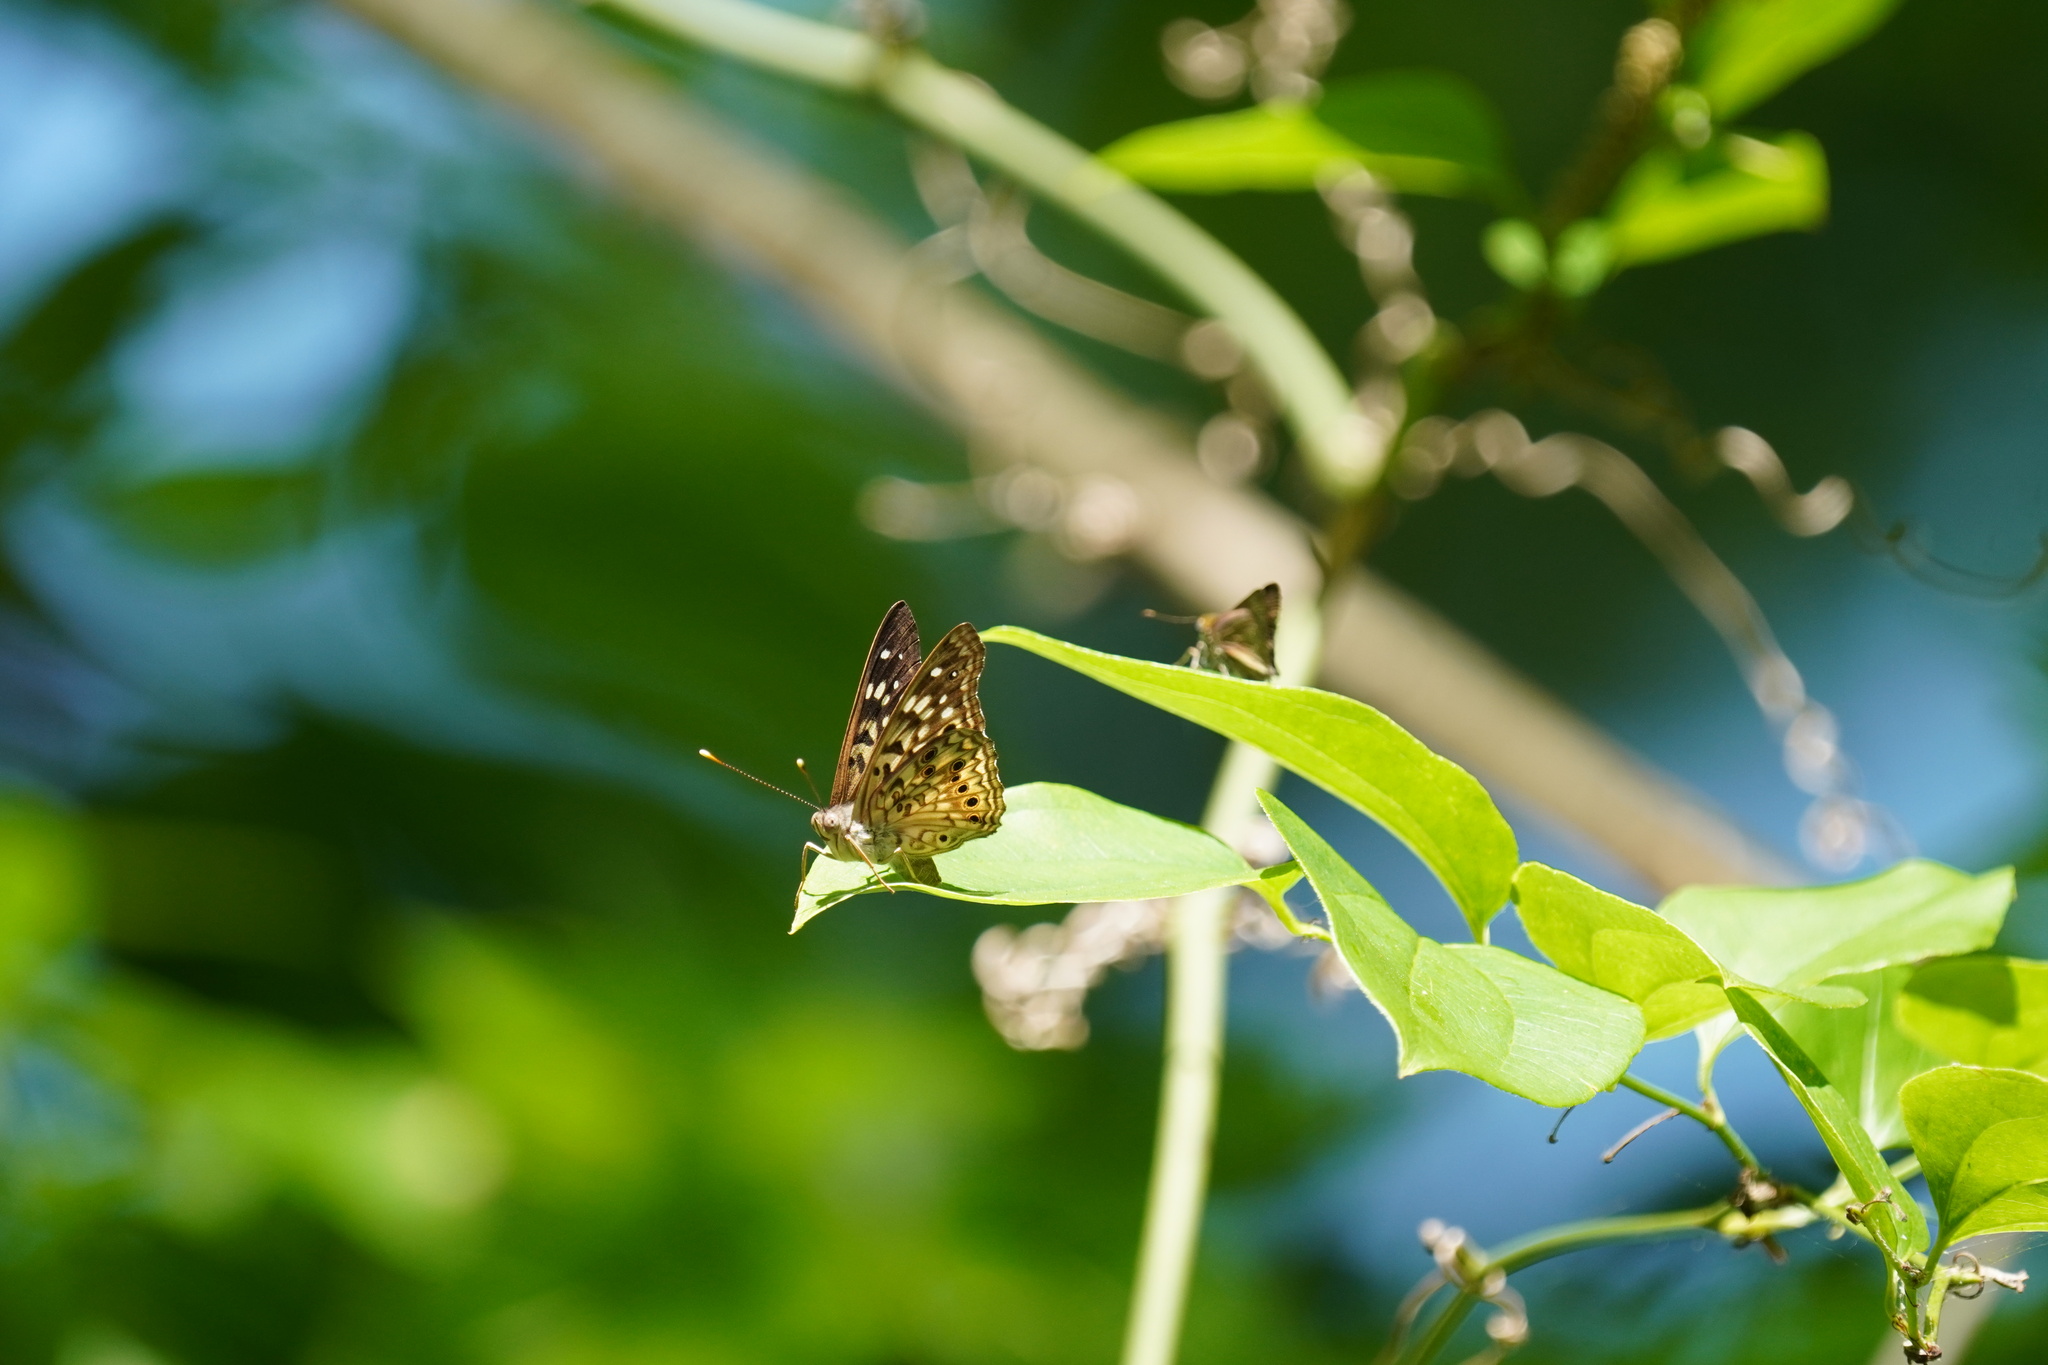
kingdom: Animalia
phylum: Arthropoda
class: Insecta
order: Lepidoptera
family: Nymphalidae
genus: Asterocampa
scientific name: Asterocampa celtis
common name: Hackberry emperor
